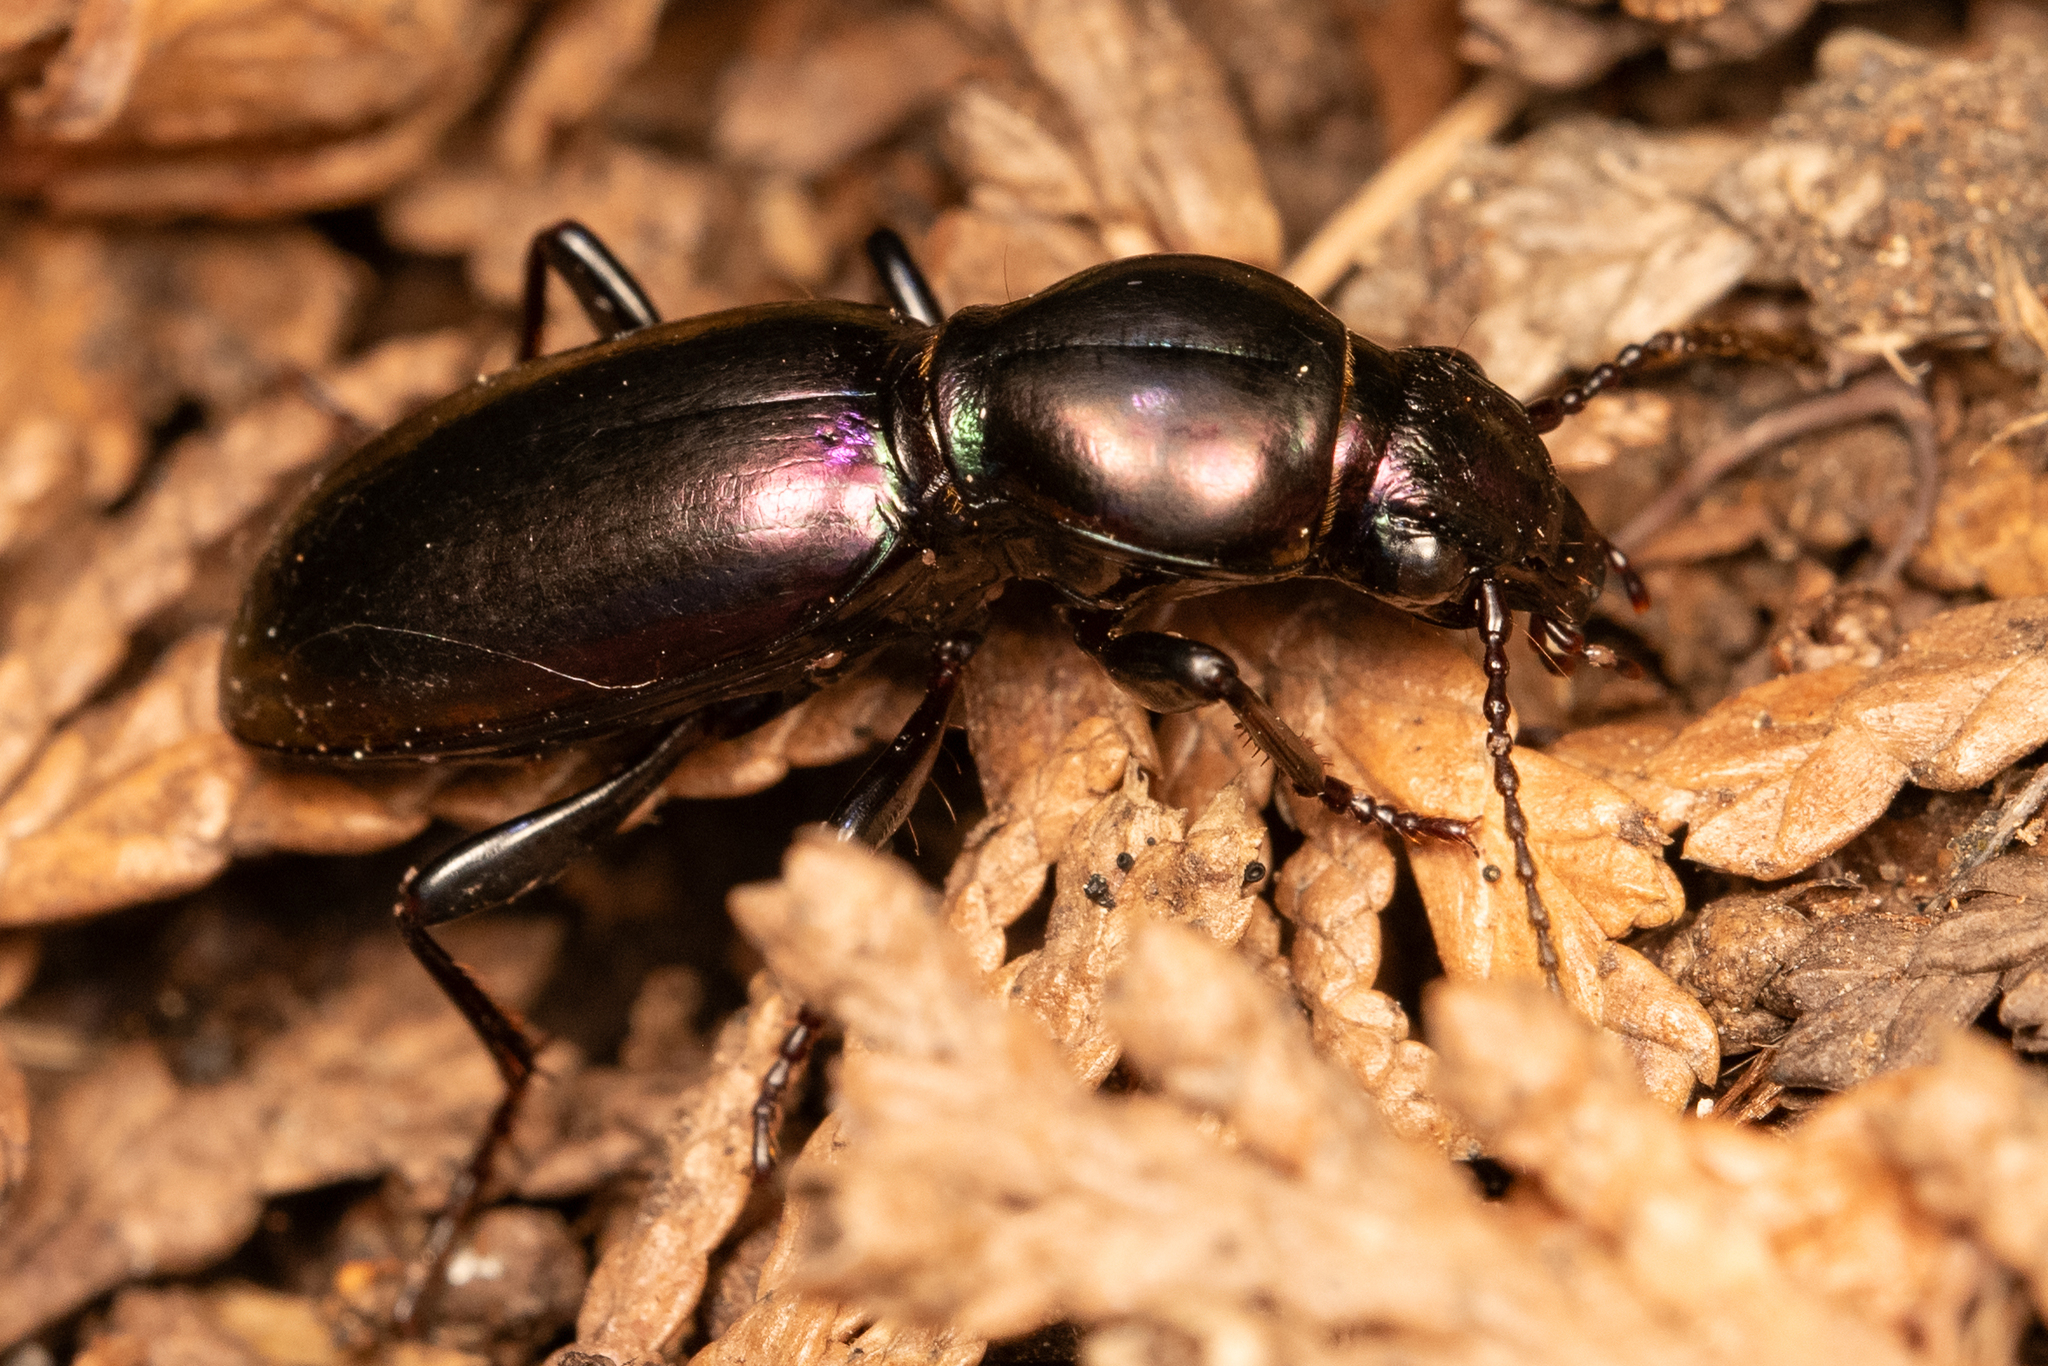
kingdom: Animalia
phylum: Arthropoda
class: Insecta
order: Coleoptera
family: Carabidae
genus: Zacotus
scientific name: Zacotus matthewsii
